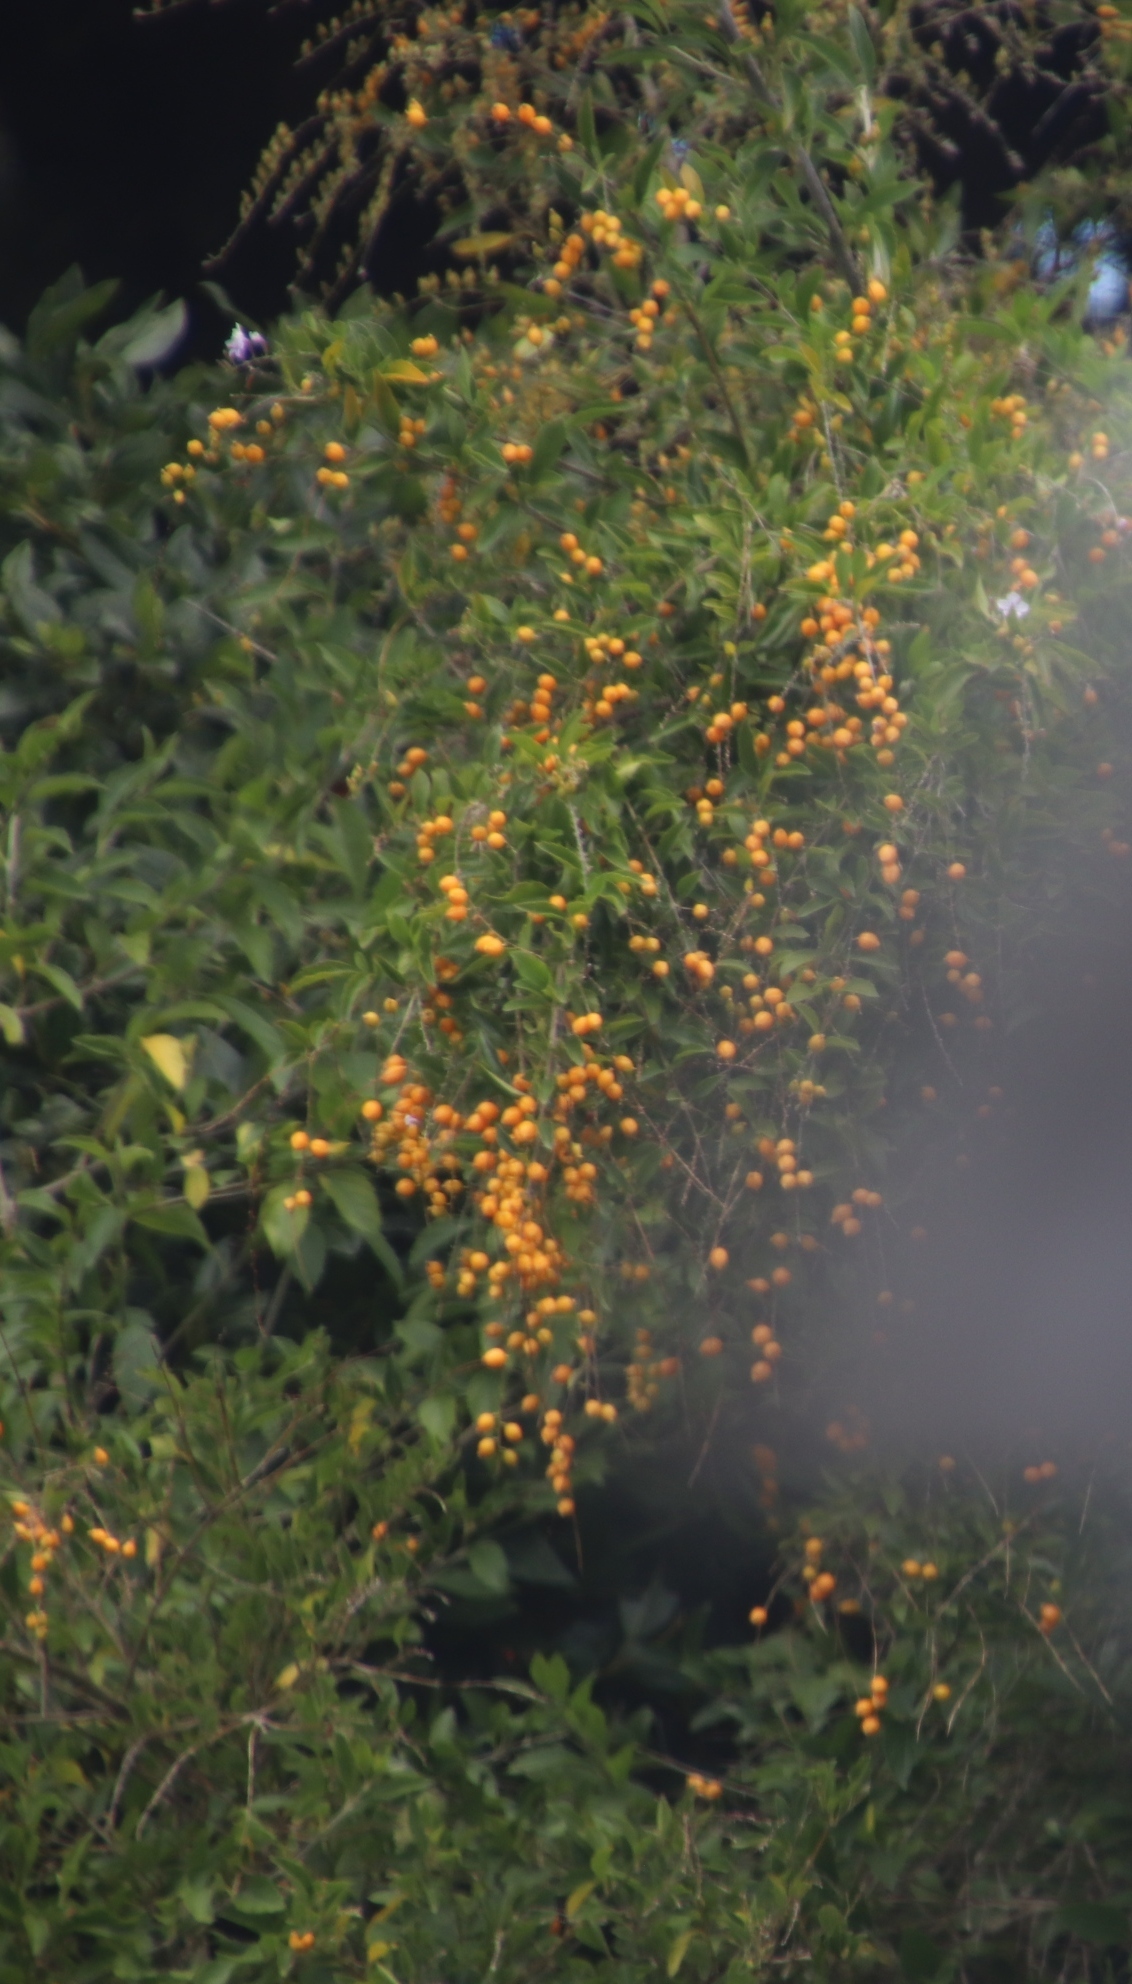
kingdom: Plantae
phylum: Tracheophyta
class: Magnoliopsida
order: Lamiales
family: Verbenaceae
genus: Duranta
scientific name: Duranta erecta
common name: Golden dewdrops
